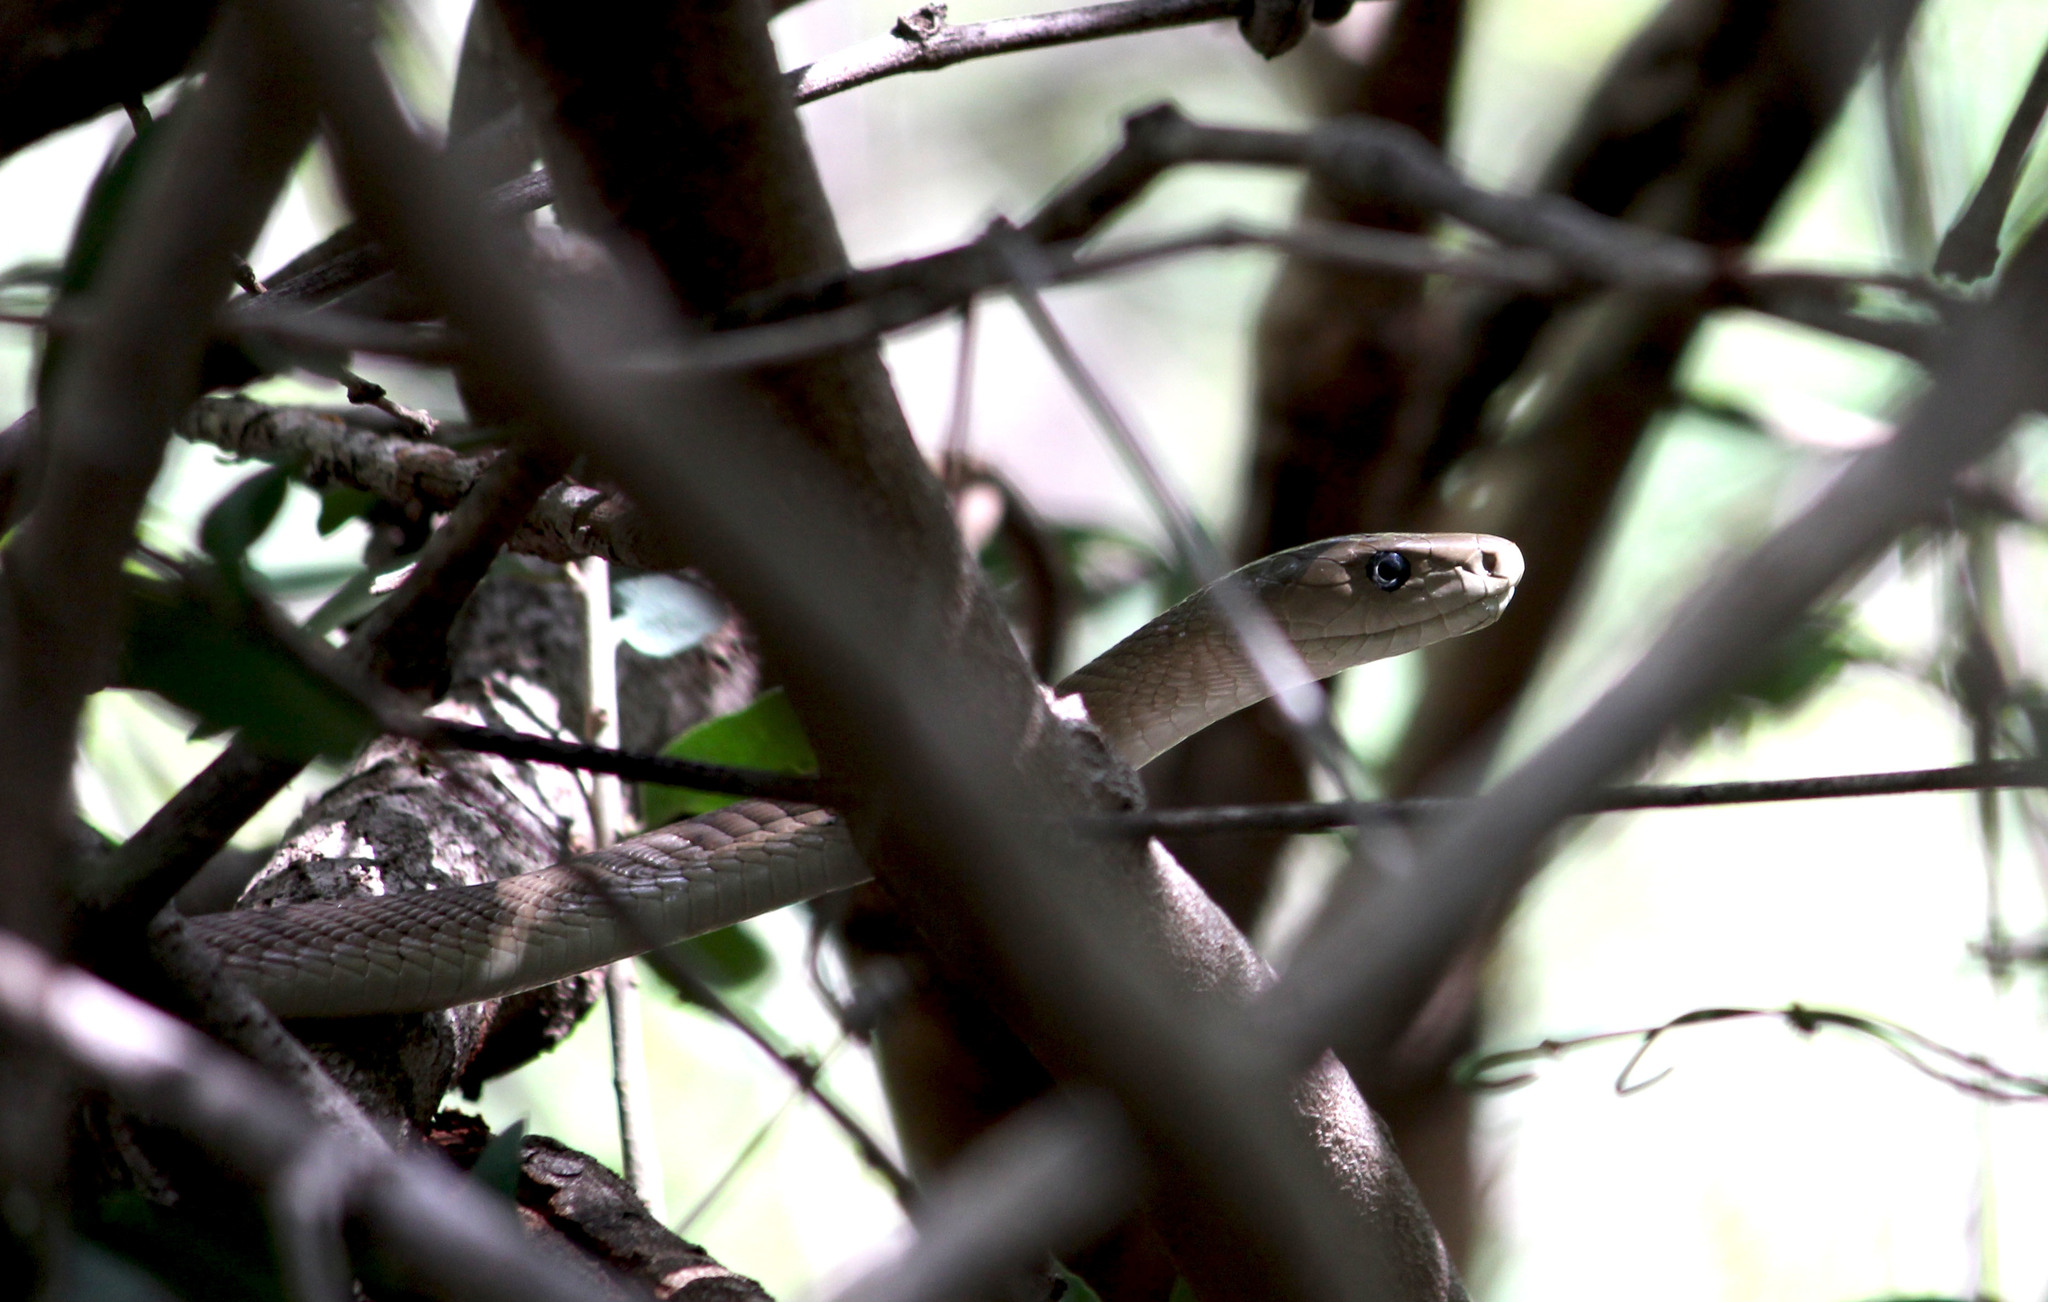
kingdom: Animalia
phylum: Chordata
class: Squamata
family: Elapidae
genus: Dendroaspis
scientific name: Dendroaspis polylepis
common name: Black mamba
